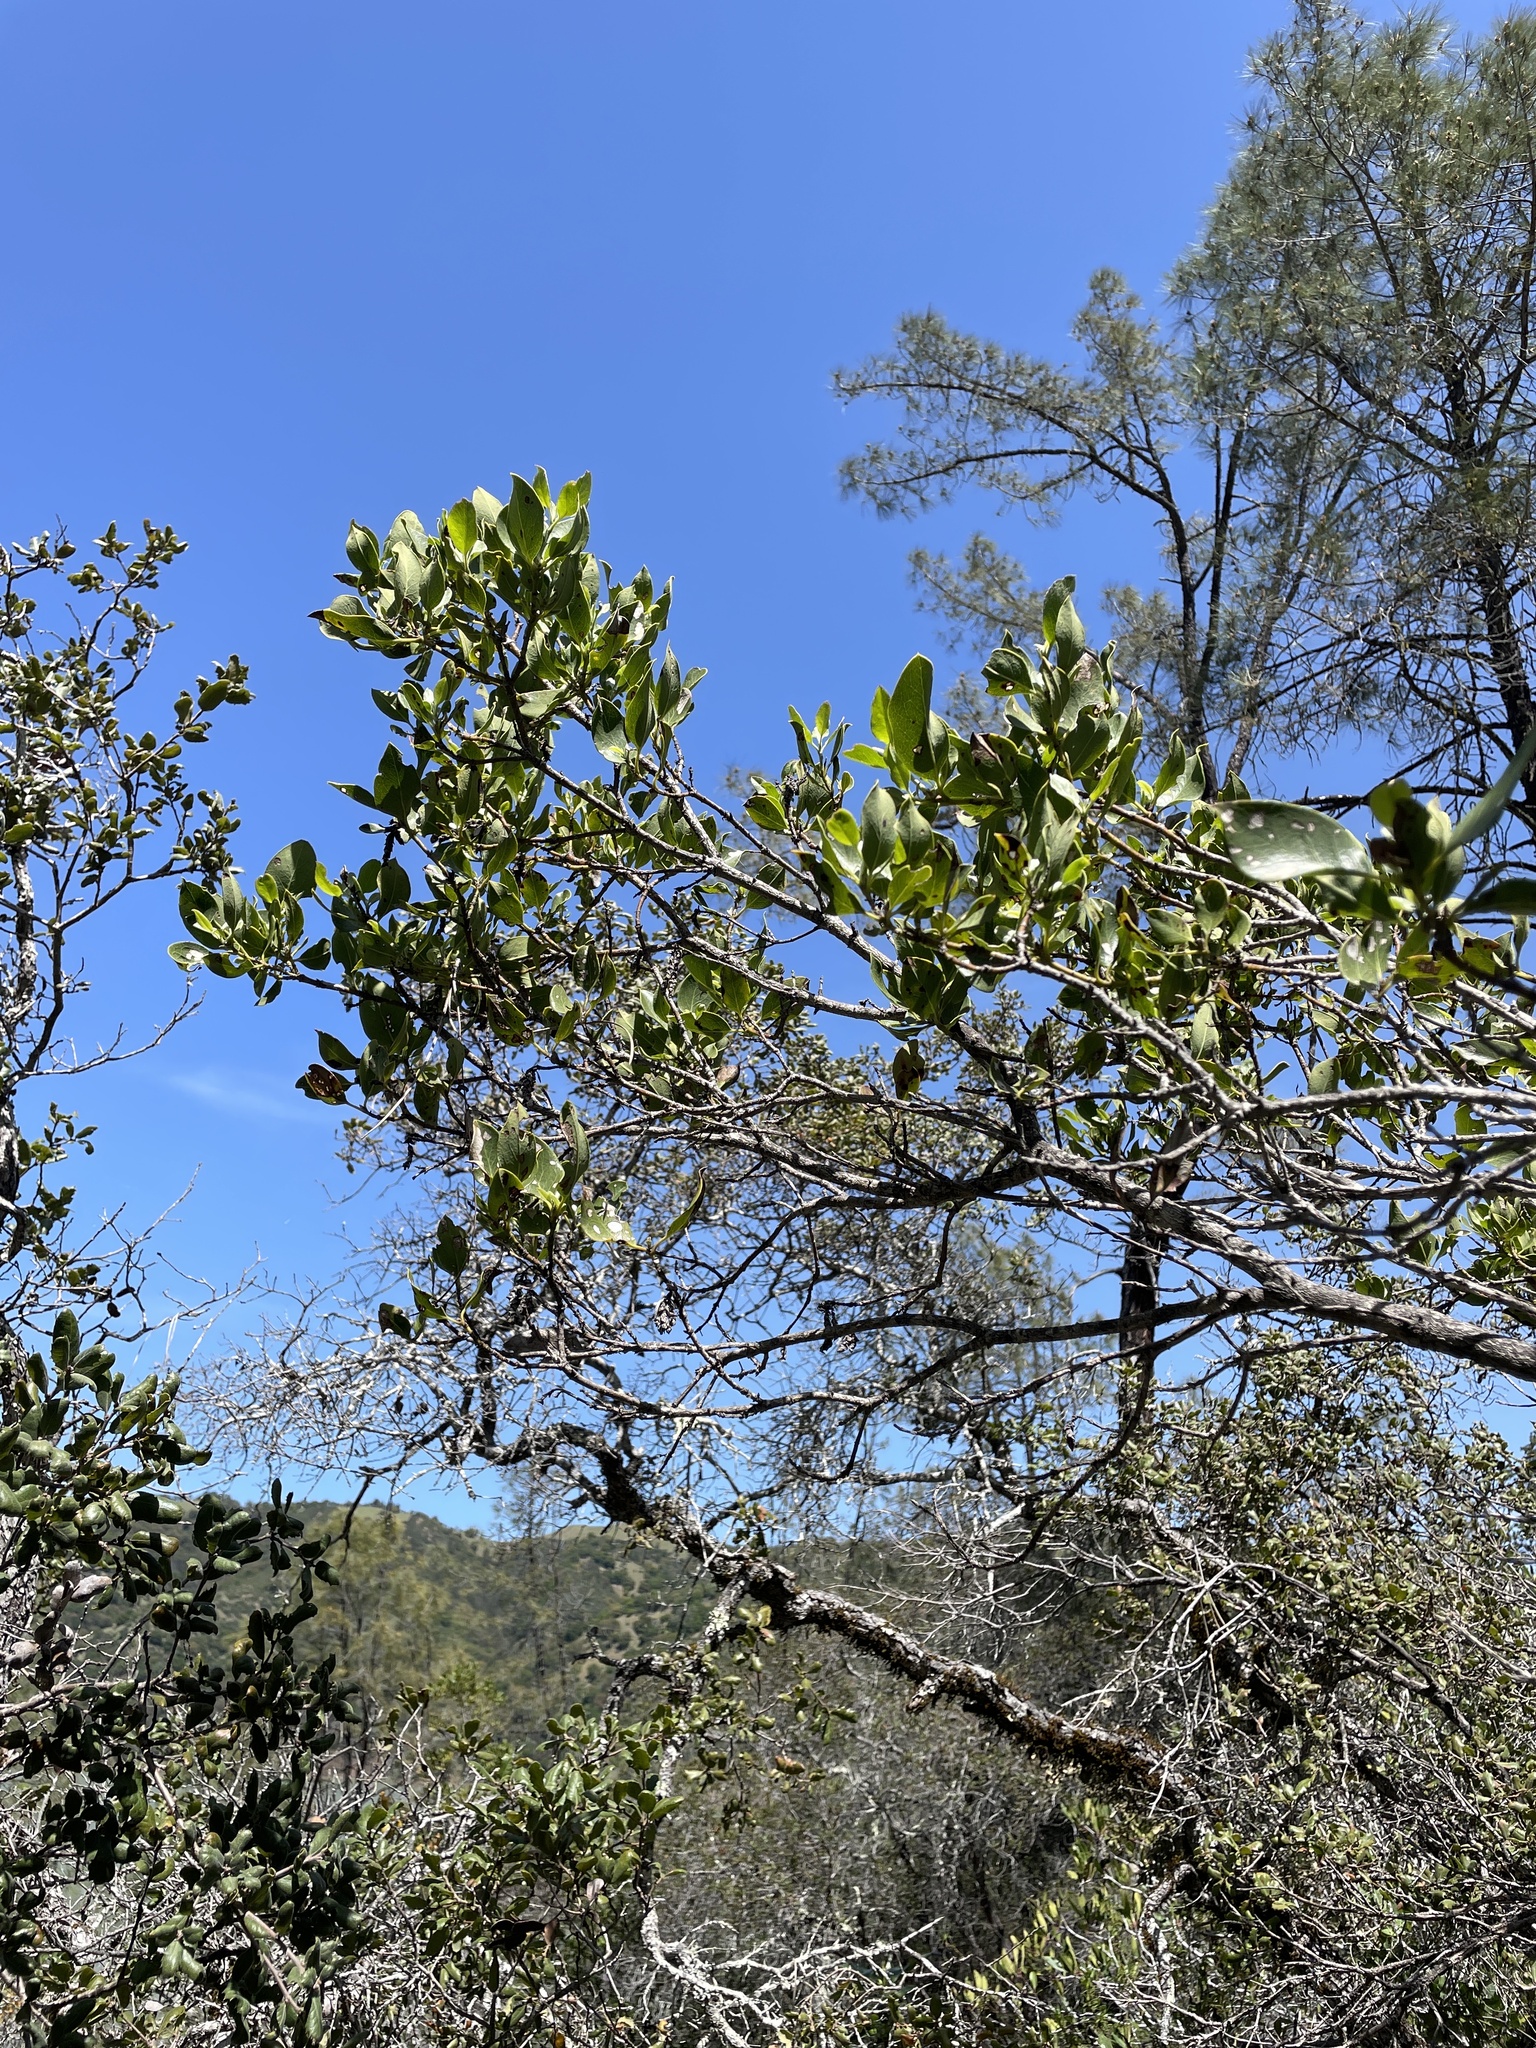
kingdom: Plantae
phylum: Tracheophyta
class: Magnoliopsida
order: Garryales
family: Garryaceae
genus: Garrya
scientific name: Garrya fremontii
